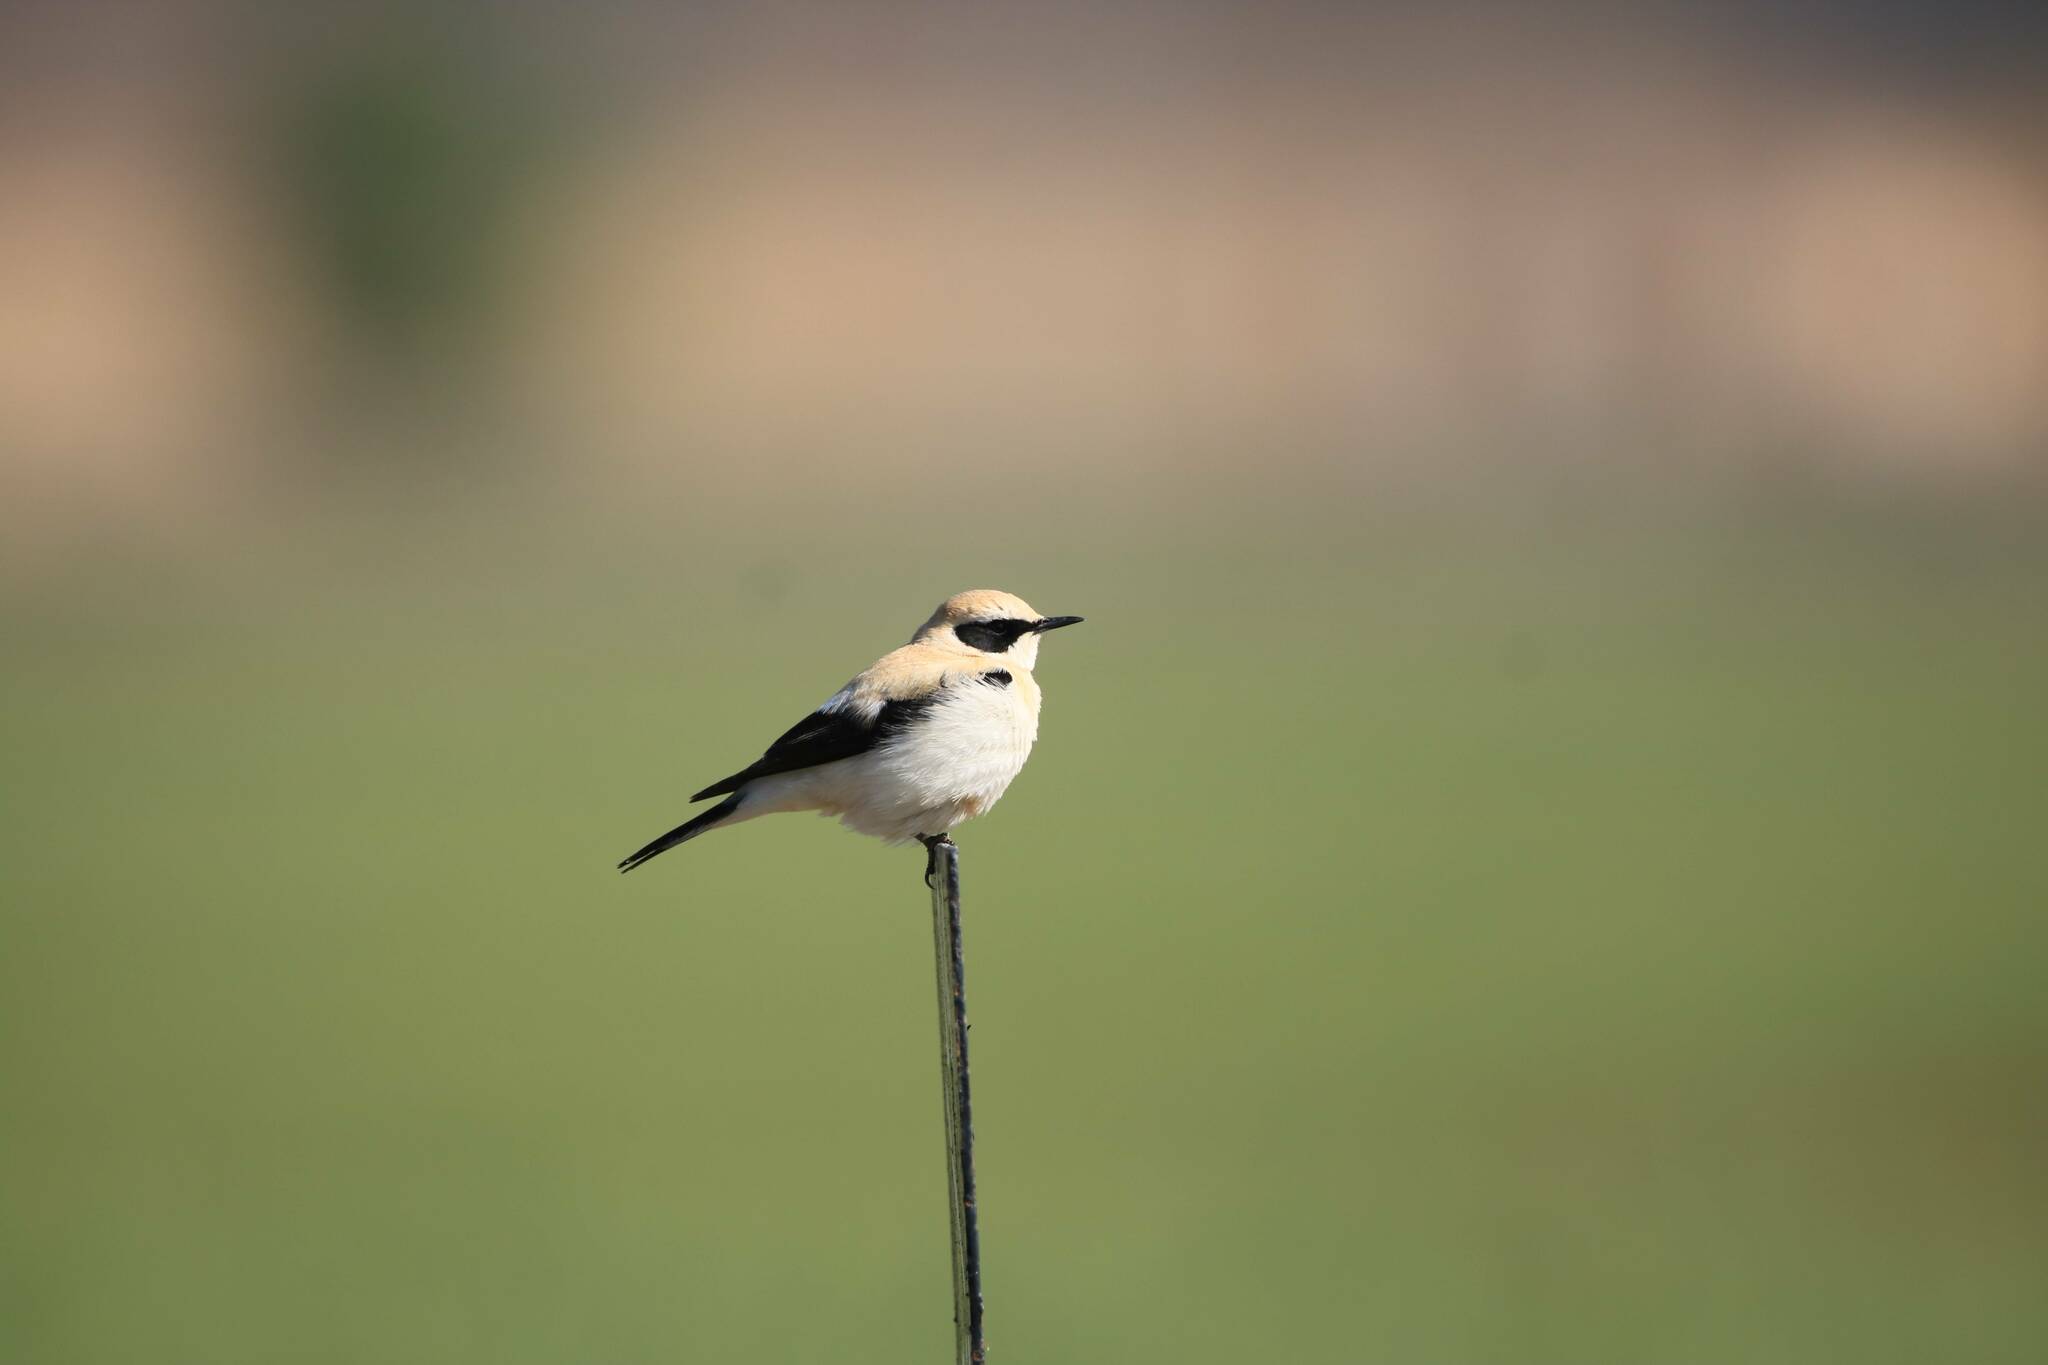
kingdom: Animalia
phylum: Chordata
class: Aves
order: Passeriformes
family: Muscicapidae
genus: Oenanthe
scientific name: Oenanthe hispanica
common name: Black-eared wheatear
